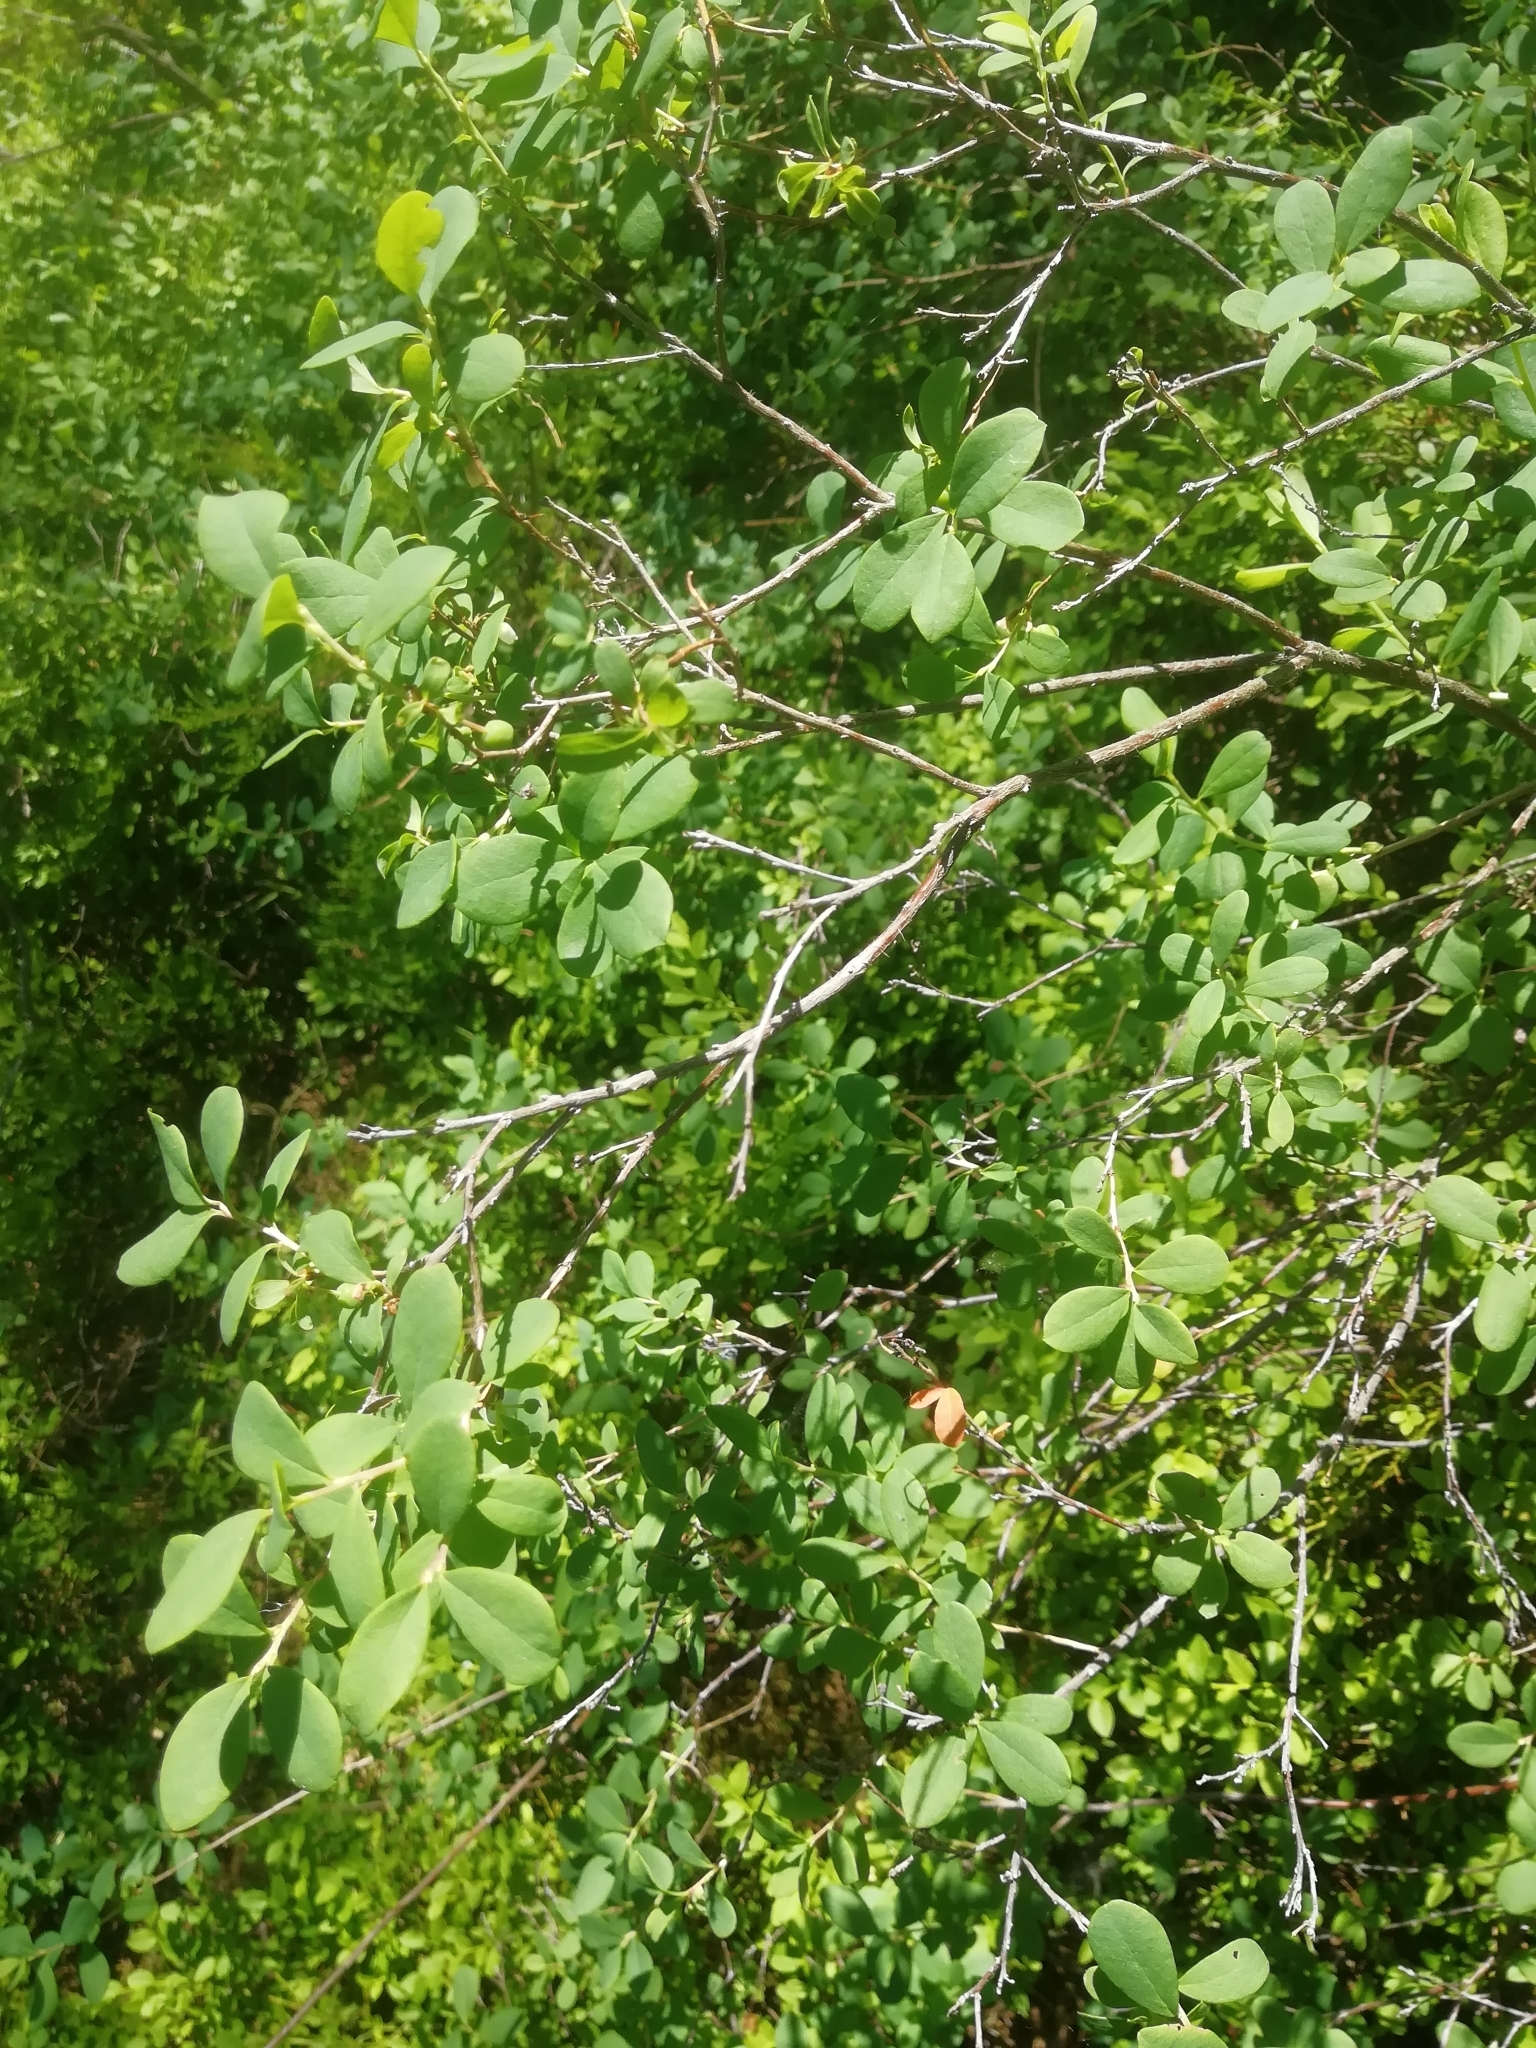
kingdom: Plantae
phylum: Tracheophyta
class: Magnoliopsida
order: Ericales
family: Ericaceae
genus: Vaccinium
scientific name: Vaccinium uliginosum
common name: Bog bilberry
